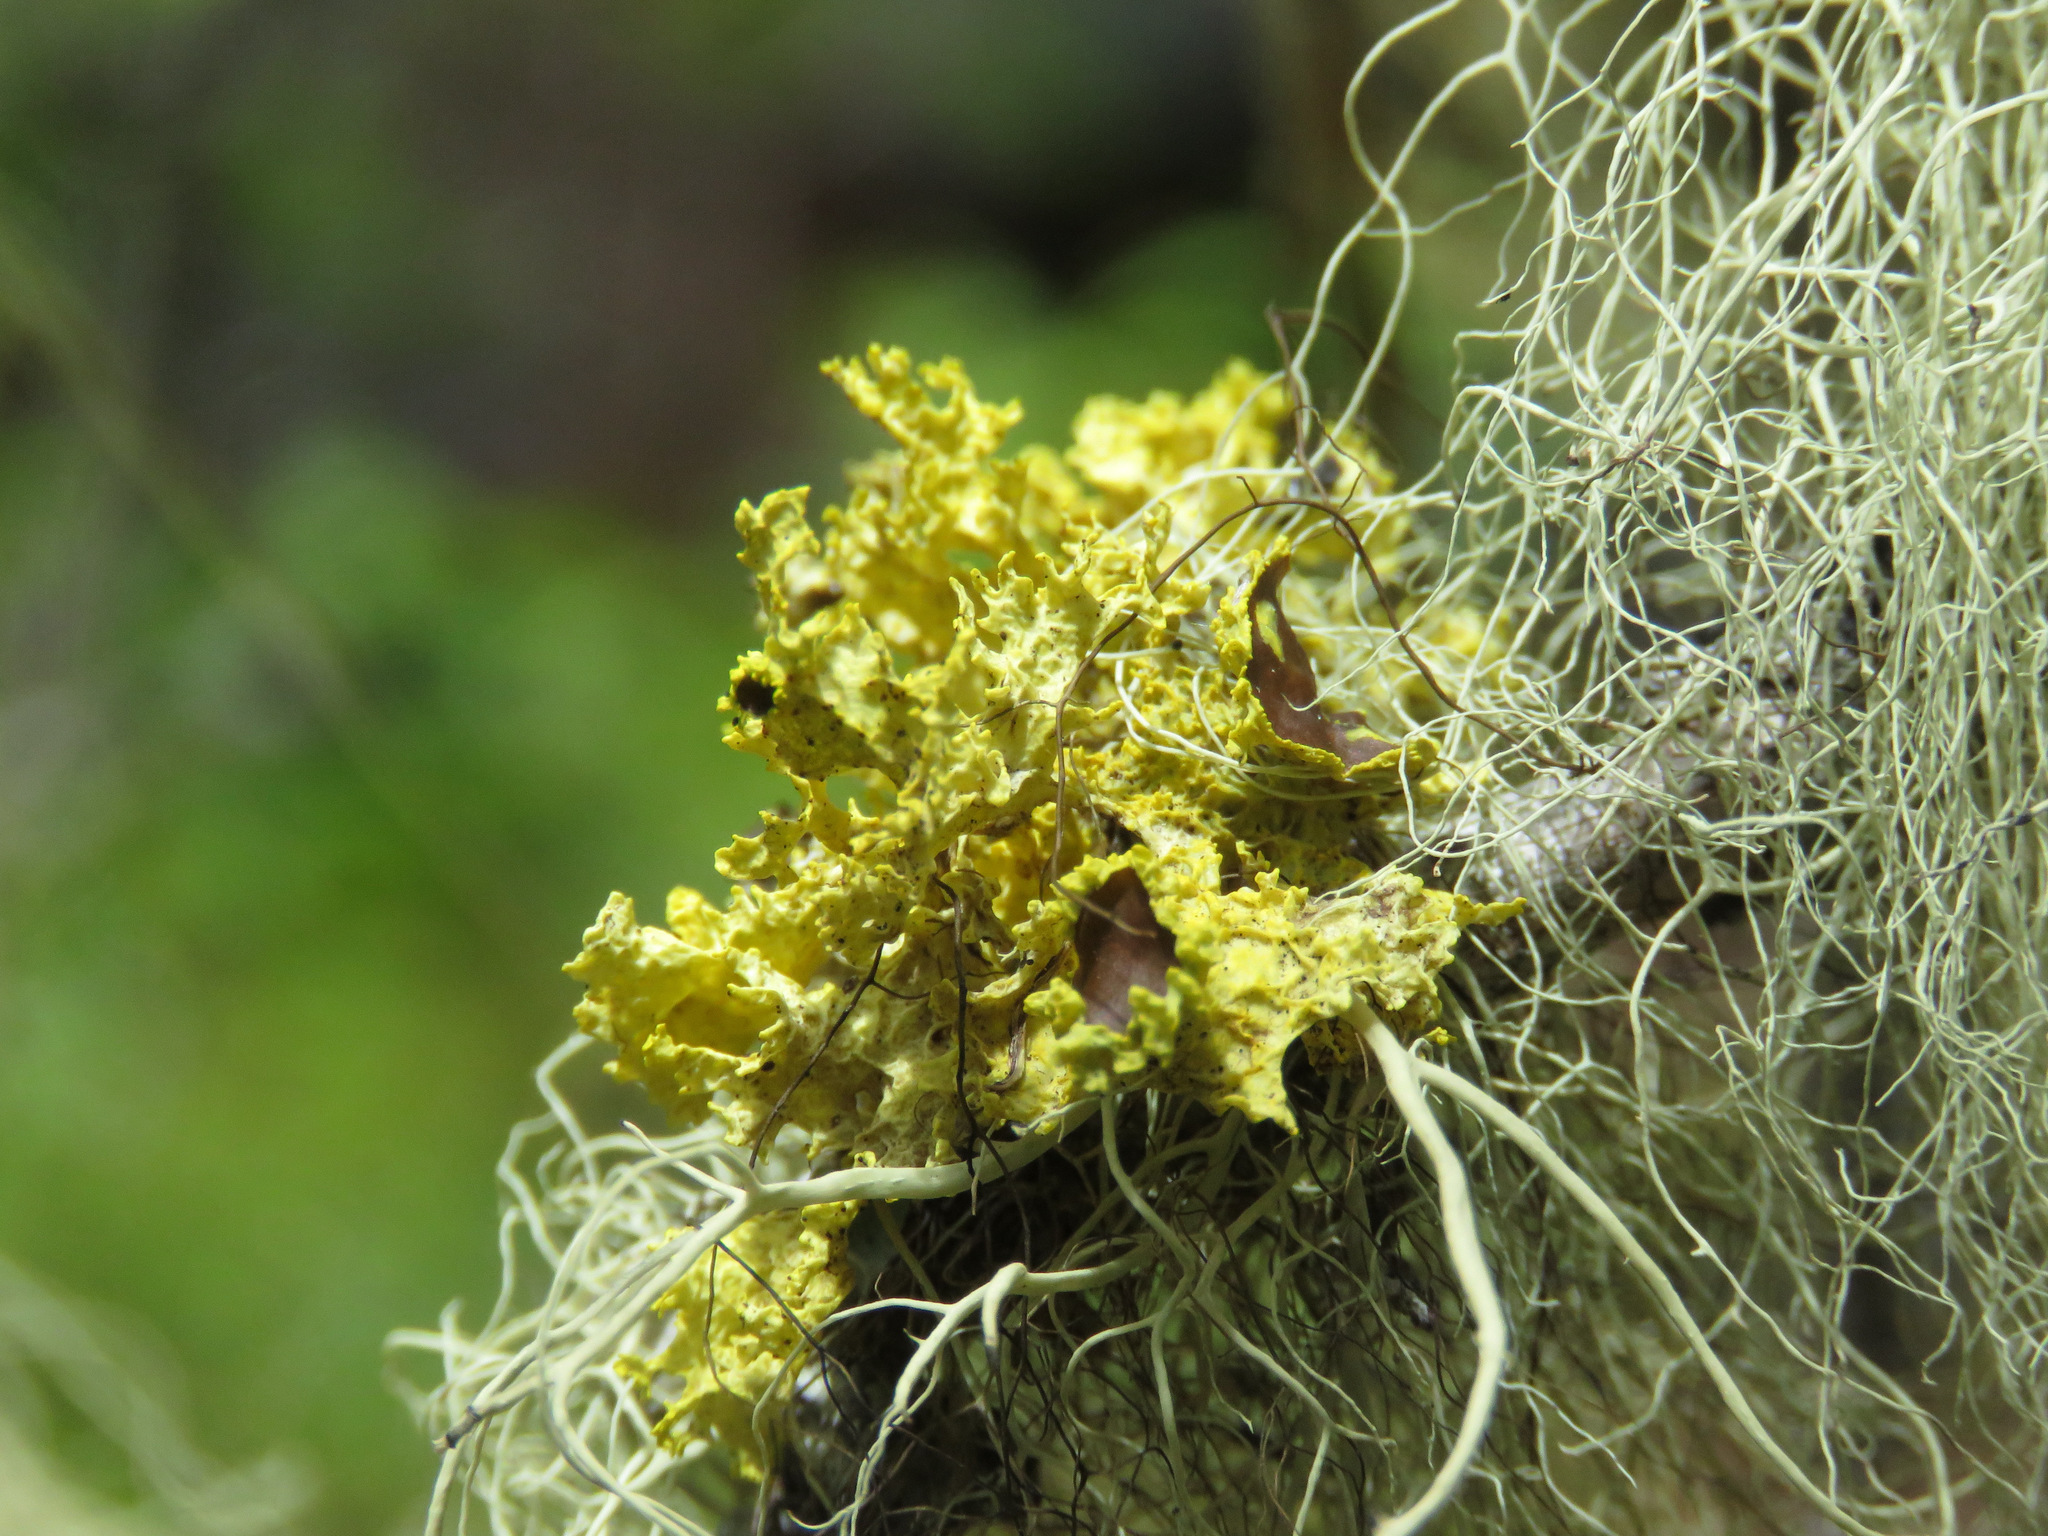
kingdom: Fungi
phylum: Ascomycota
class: Lecanoromycetes
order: Lecanorales
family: Parmeliaceae
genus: Vulpicida
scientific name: Vulpicida canadensis
